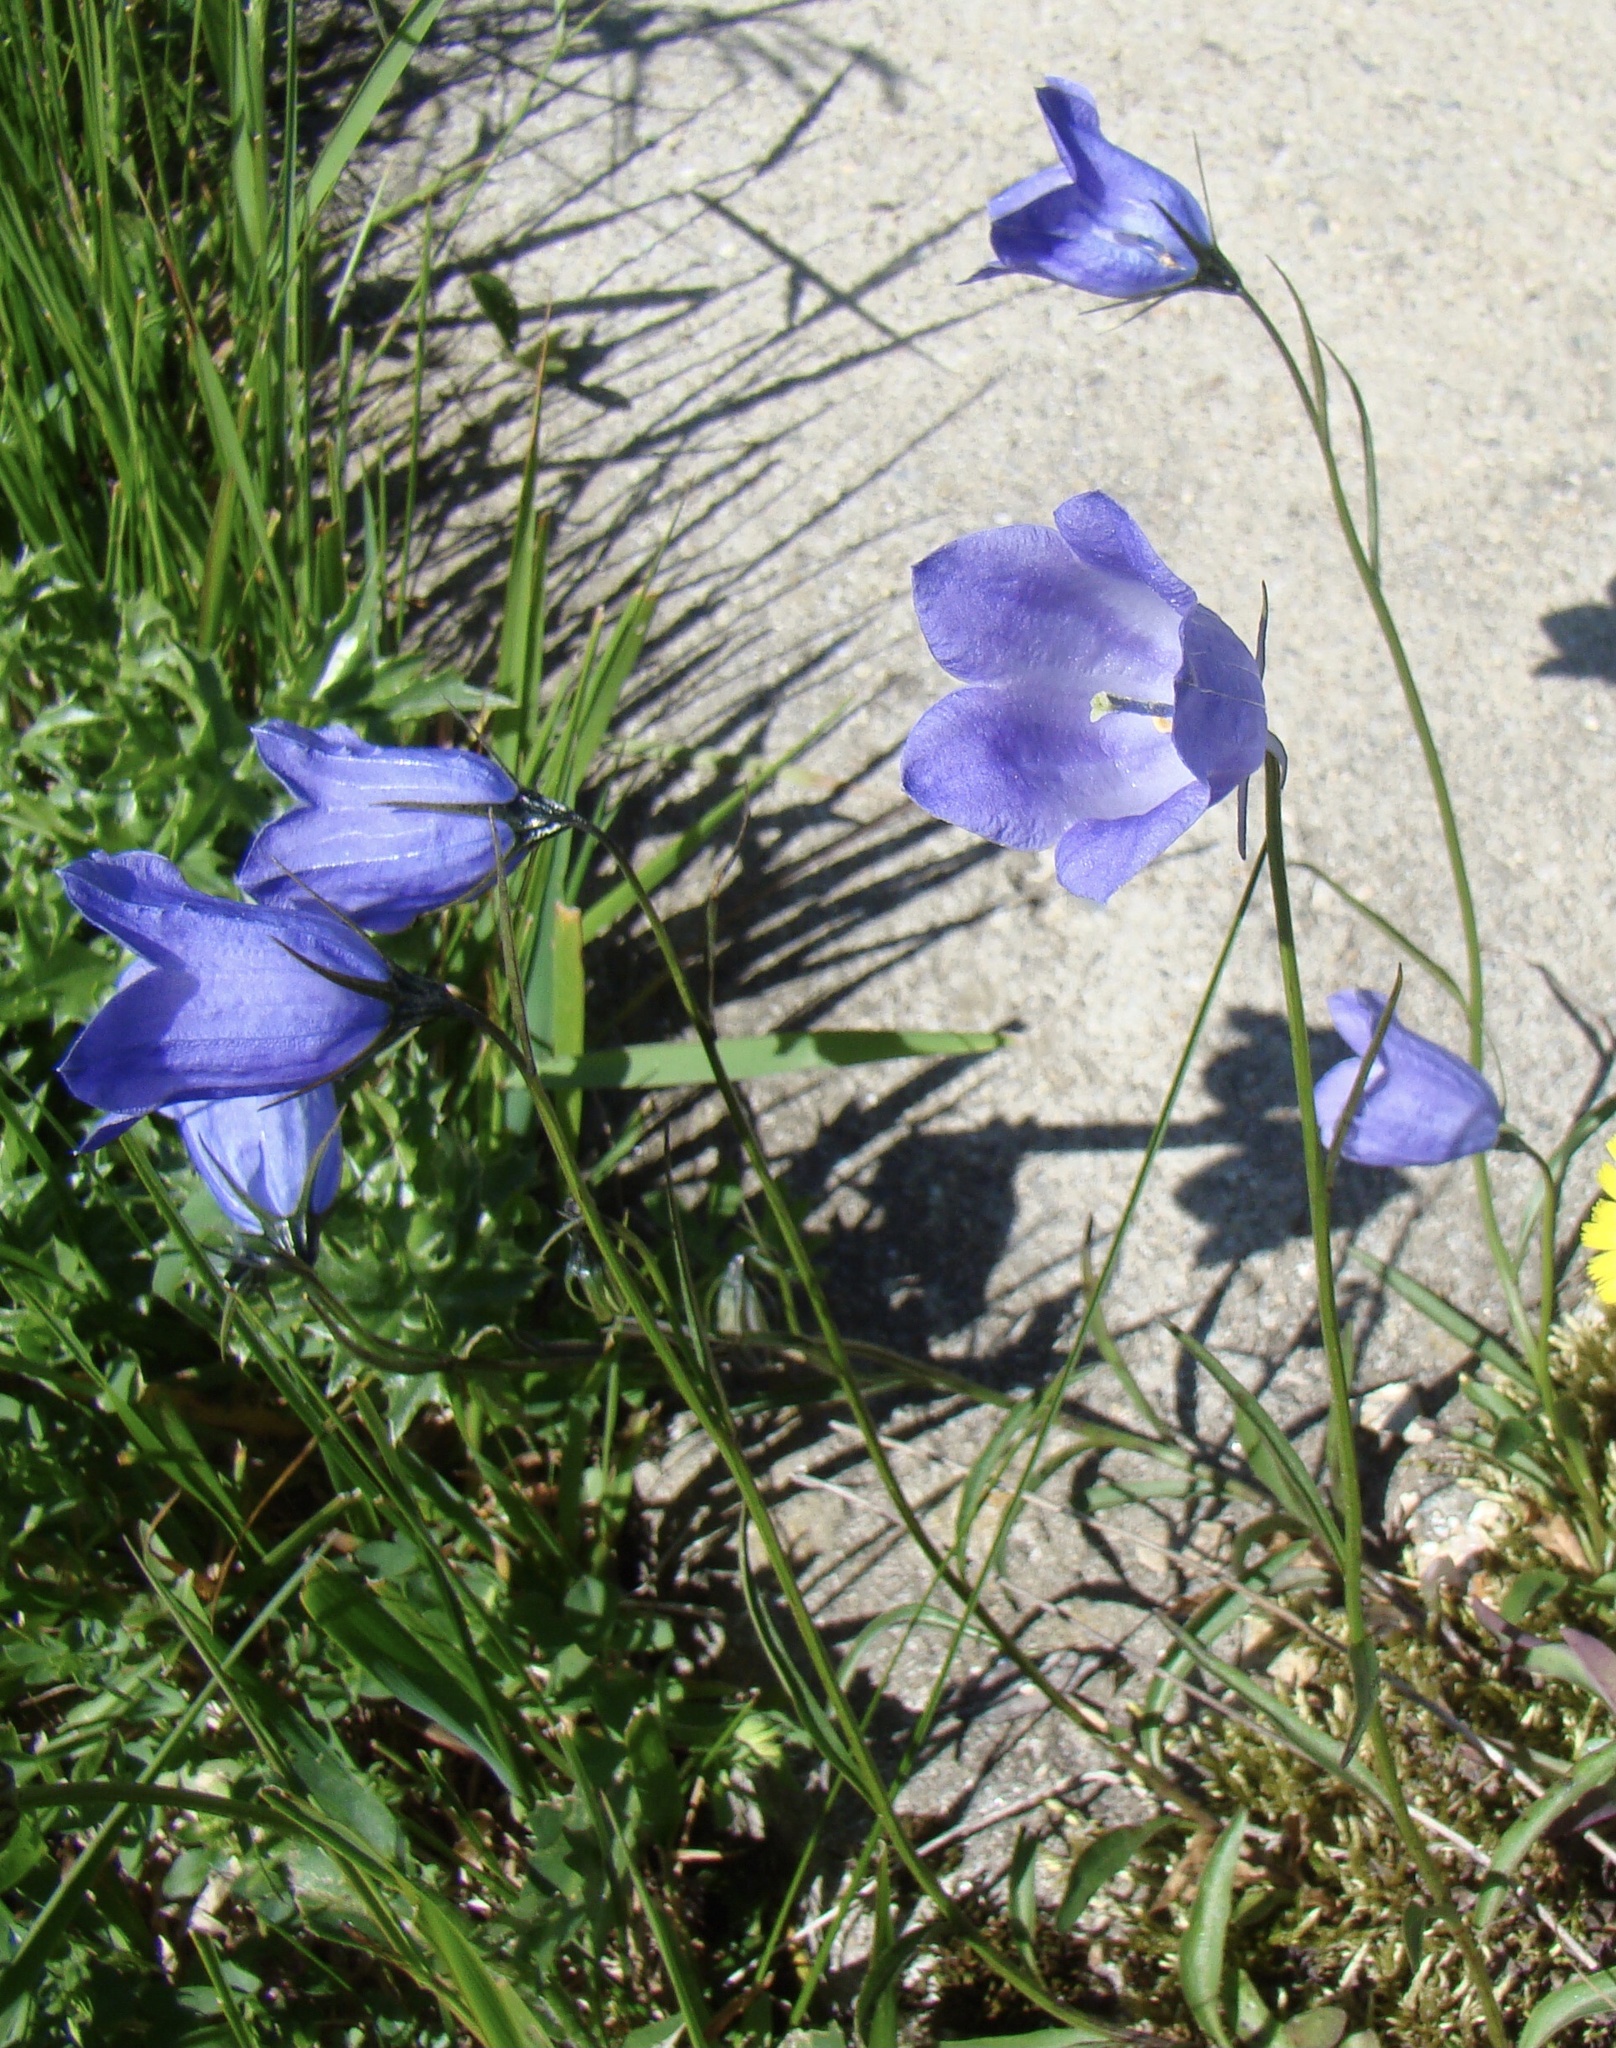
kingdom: Plantae
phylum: Tracheophyta
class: Magnoliopsida
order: Asterales
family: Campanulaceae
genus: Campanula
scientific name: Campanula scheuchzeri
